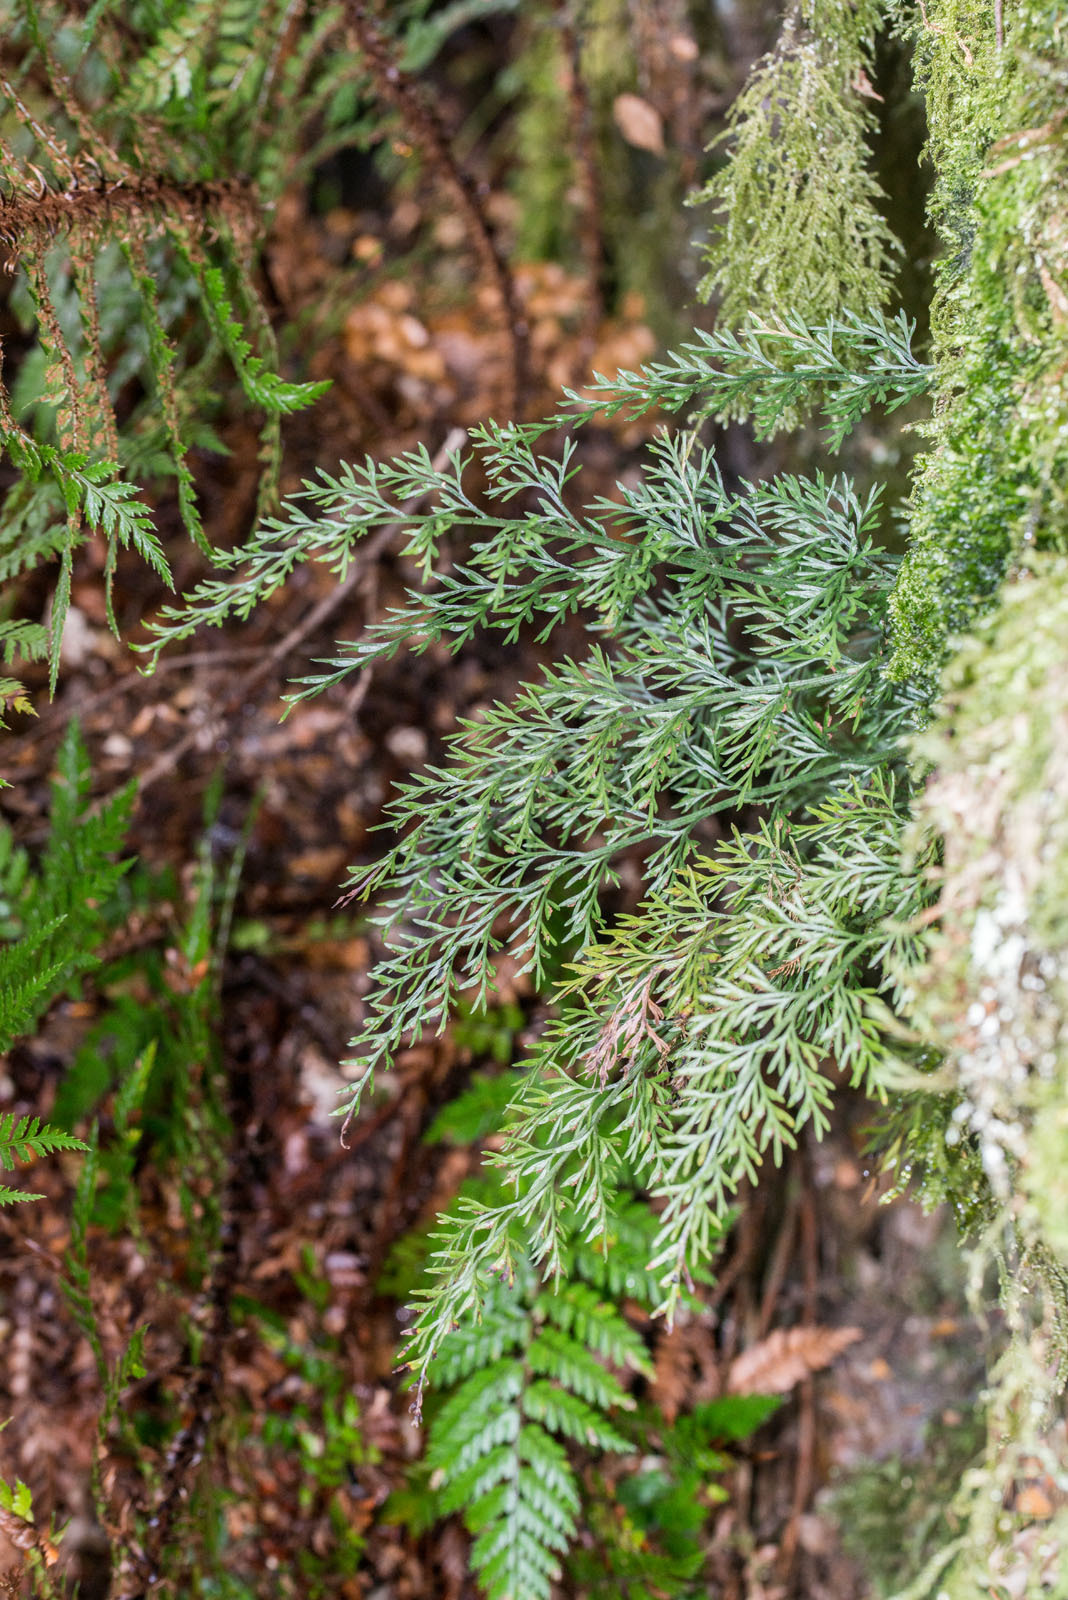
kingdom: Plantae
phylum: Tracheophyta
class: Polypodiopsida
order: Polypodiales
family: Aspleniaceae
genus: Asplenium
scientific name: Asplenium richardii
